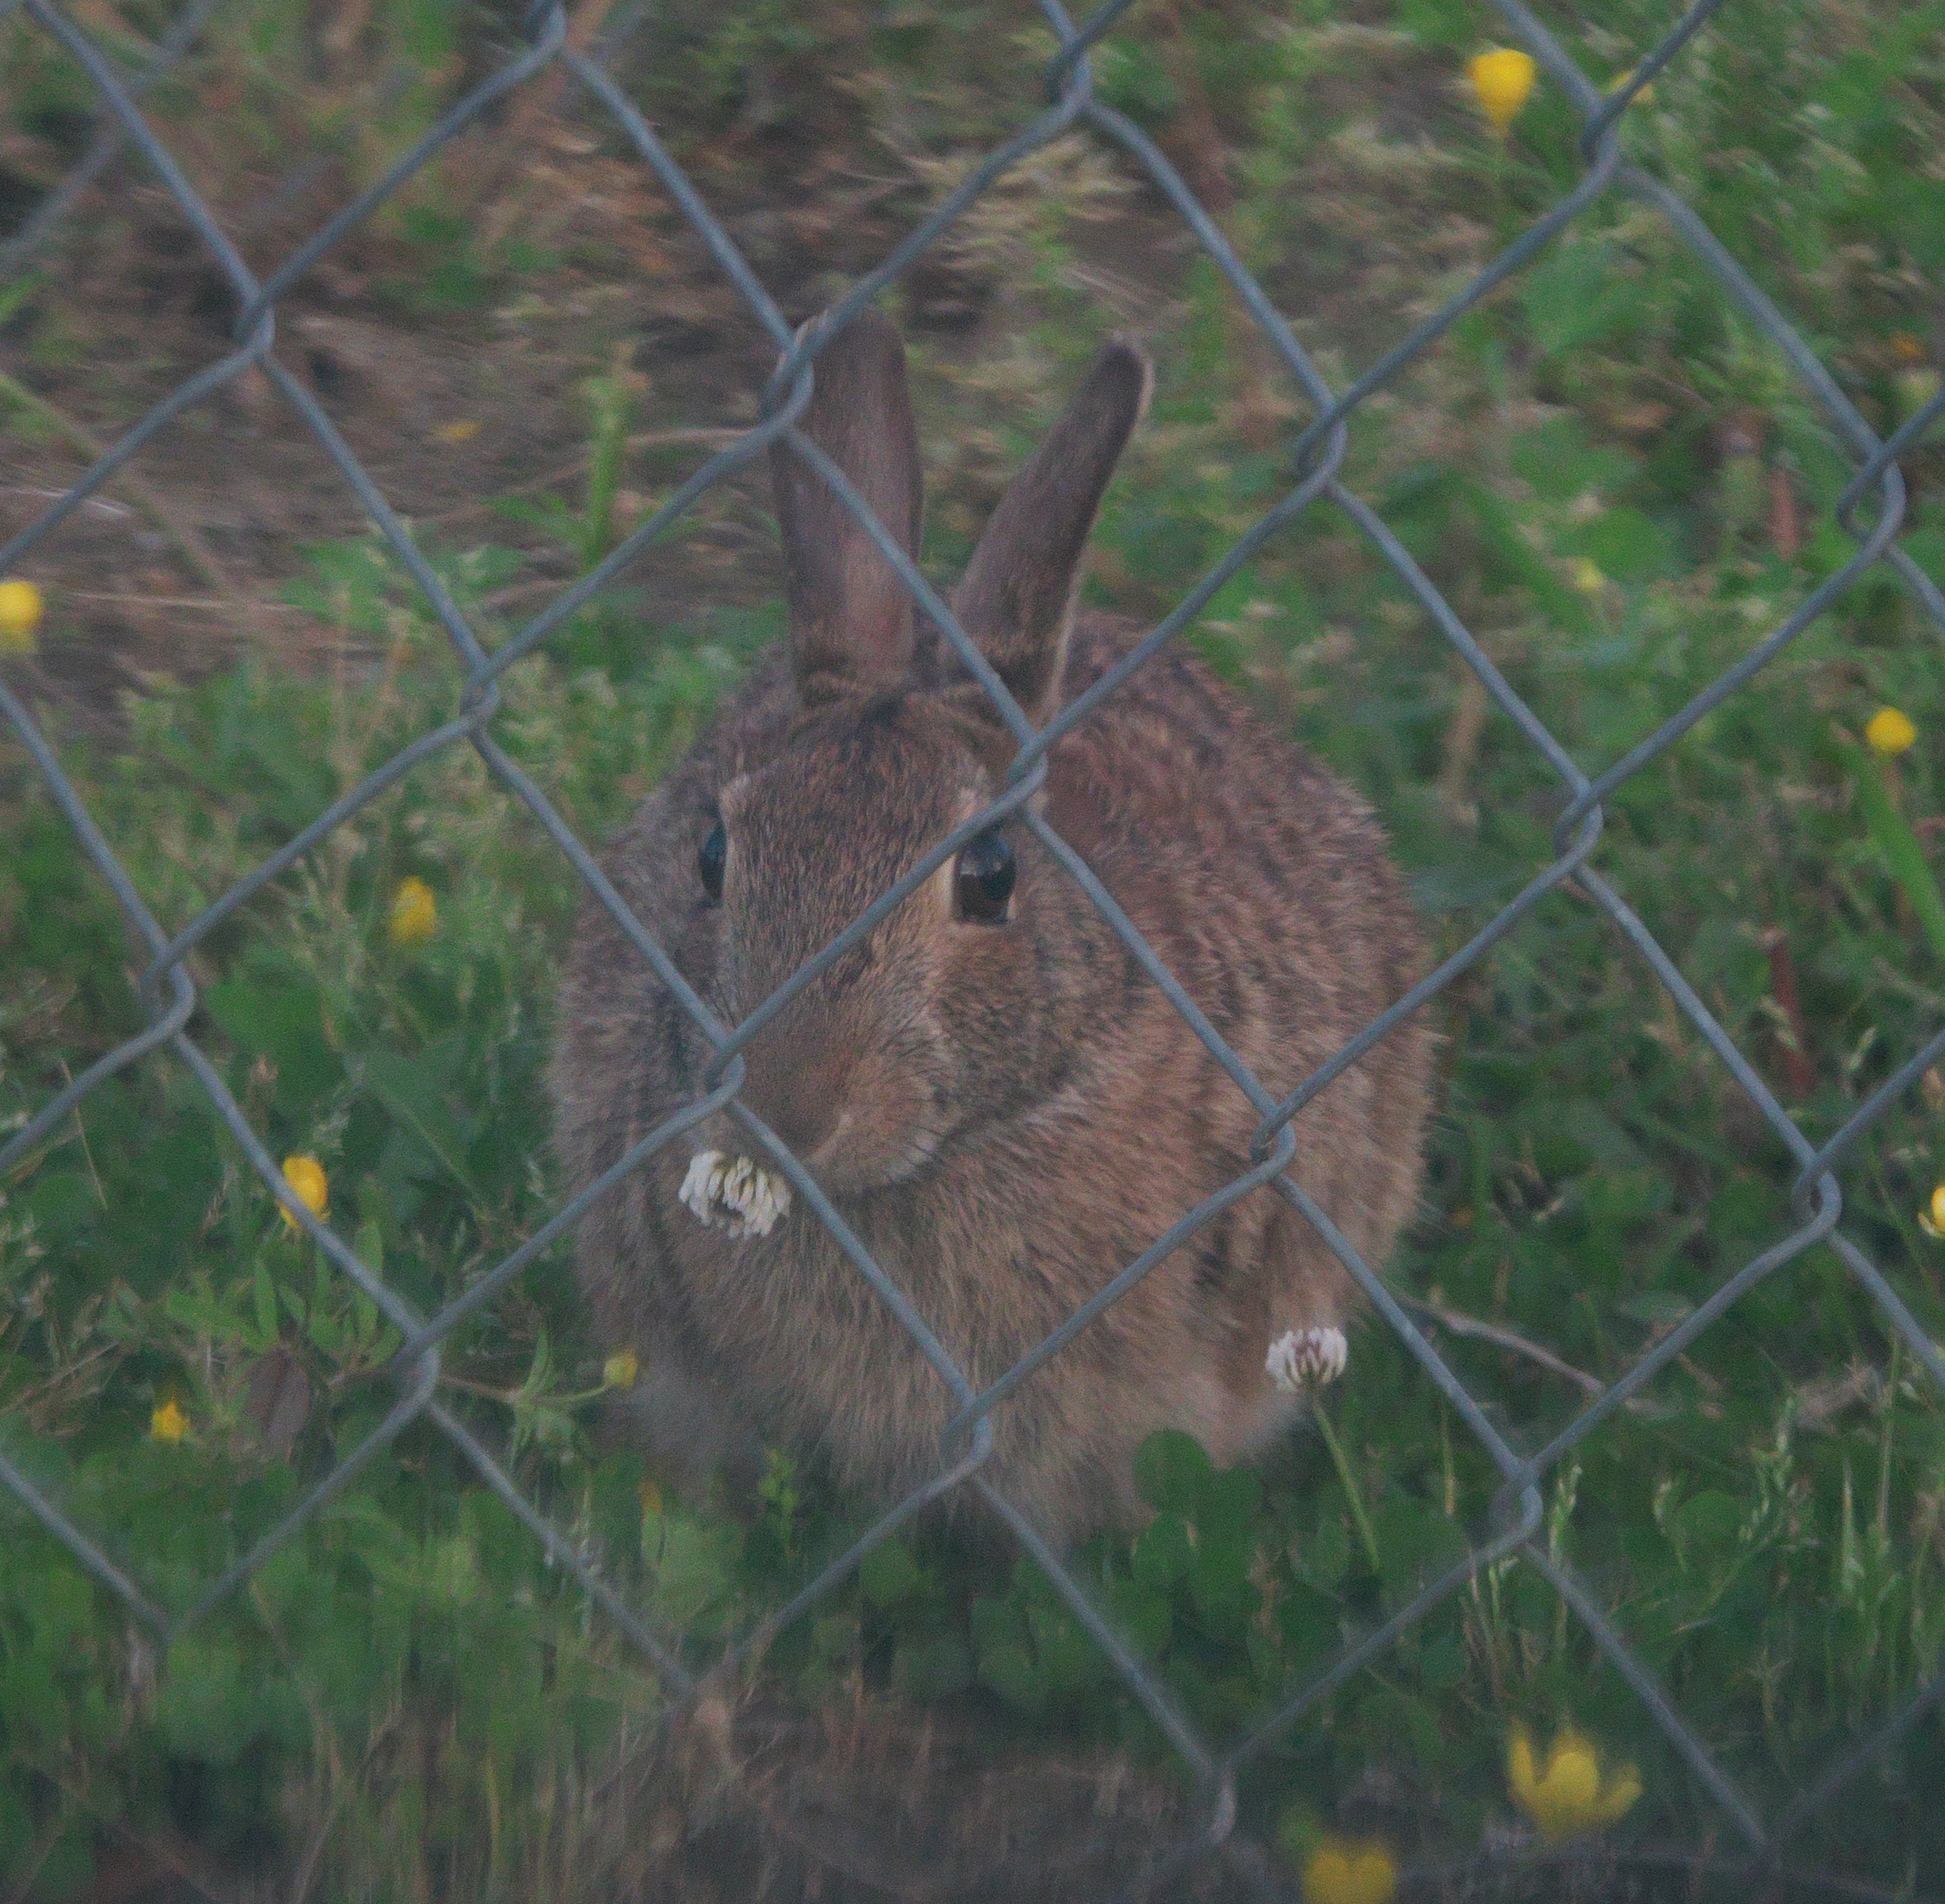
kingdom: Animalia
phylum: Chordata
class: Mammalia
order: Lagomorpha
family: Leporidae
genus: Sylvilagus
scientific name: Sylvilagus floridanus
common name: Eastern cottontail
